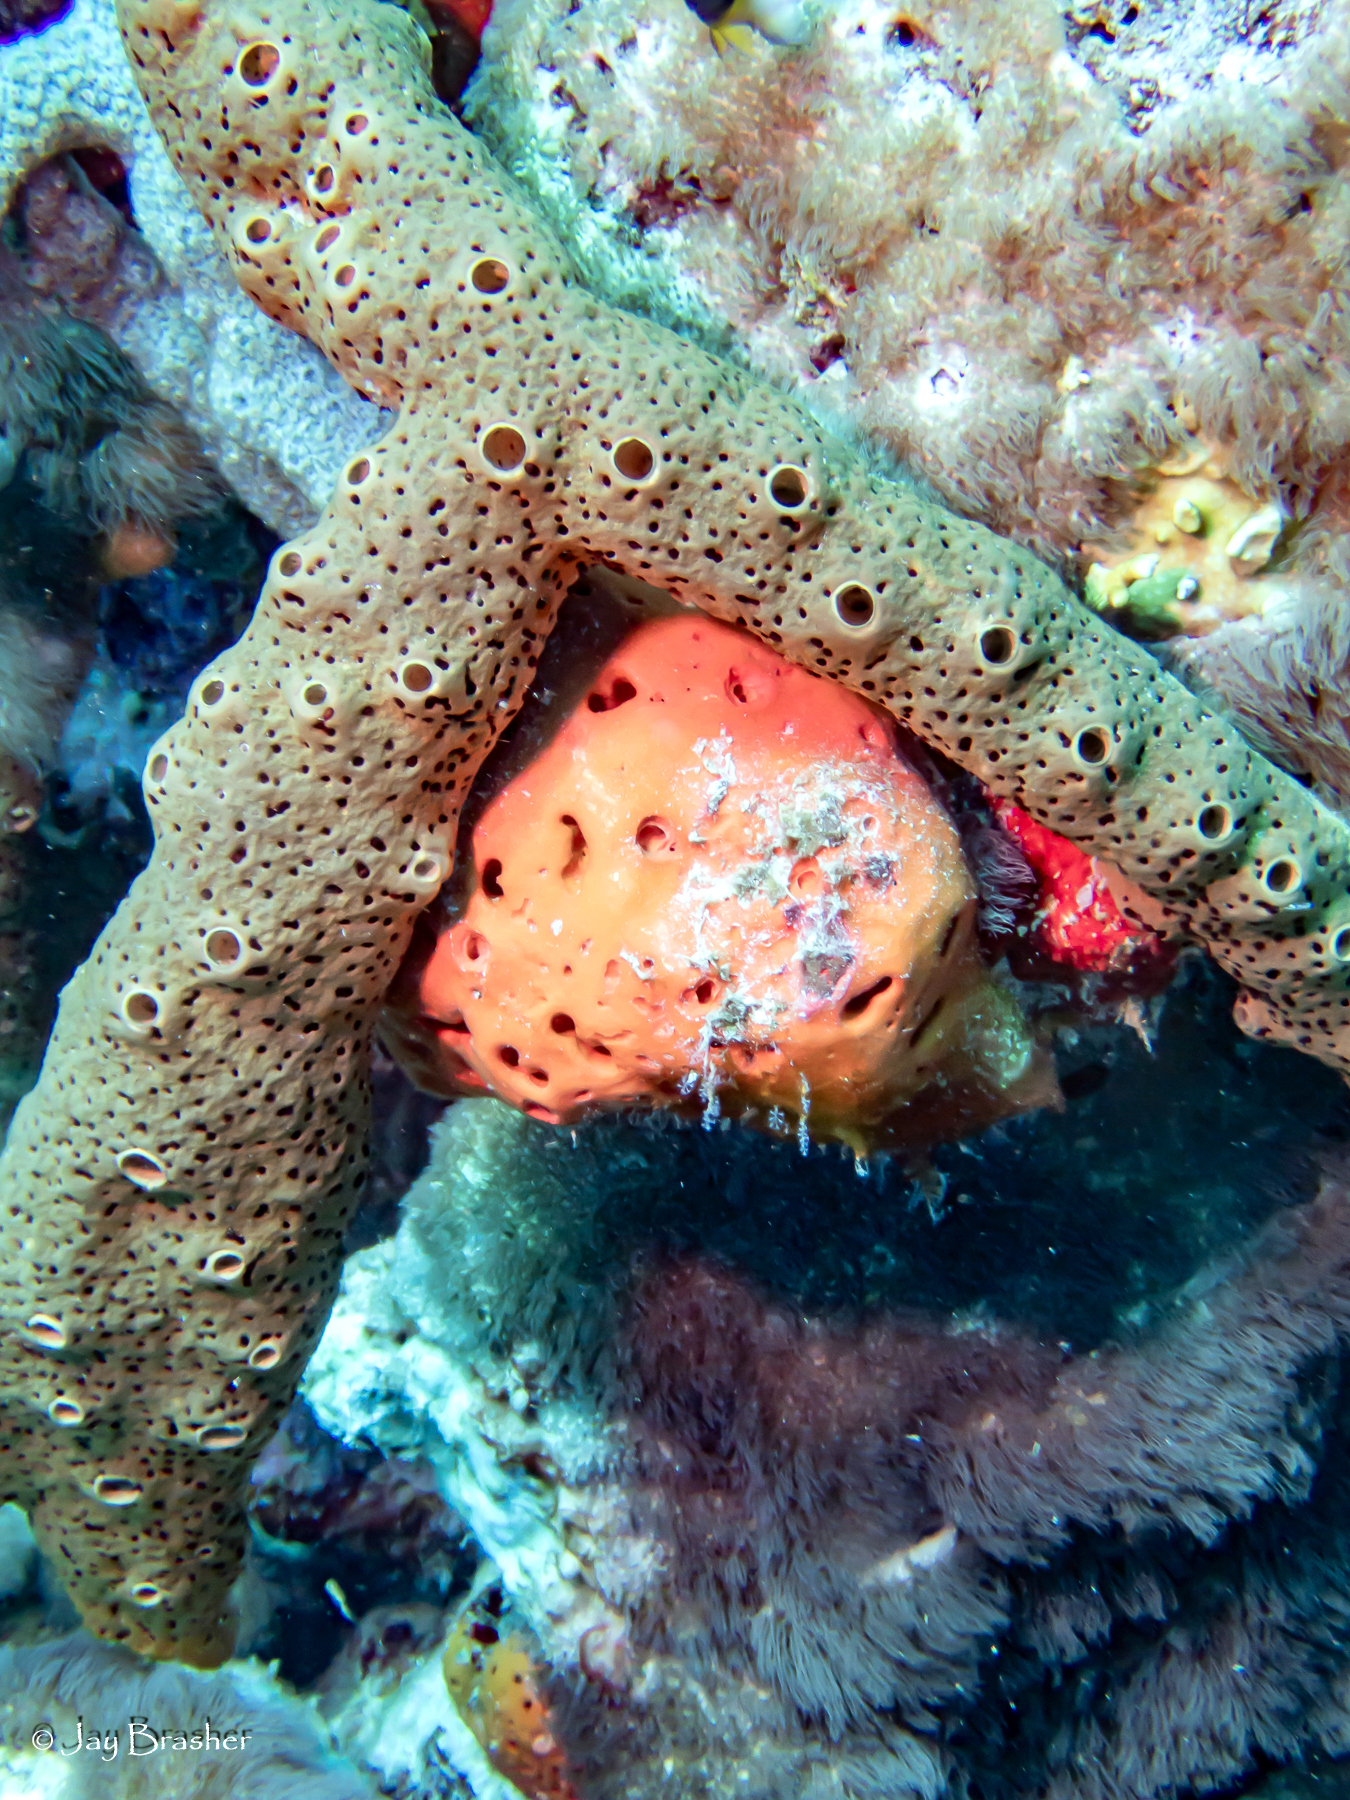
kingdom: Animalia
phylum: Porifera
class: Demospongiae
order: Agelasida
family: Agelasidae
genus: Agelas
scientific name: Agelas conifera
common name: Brown tube sponge
